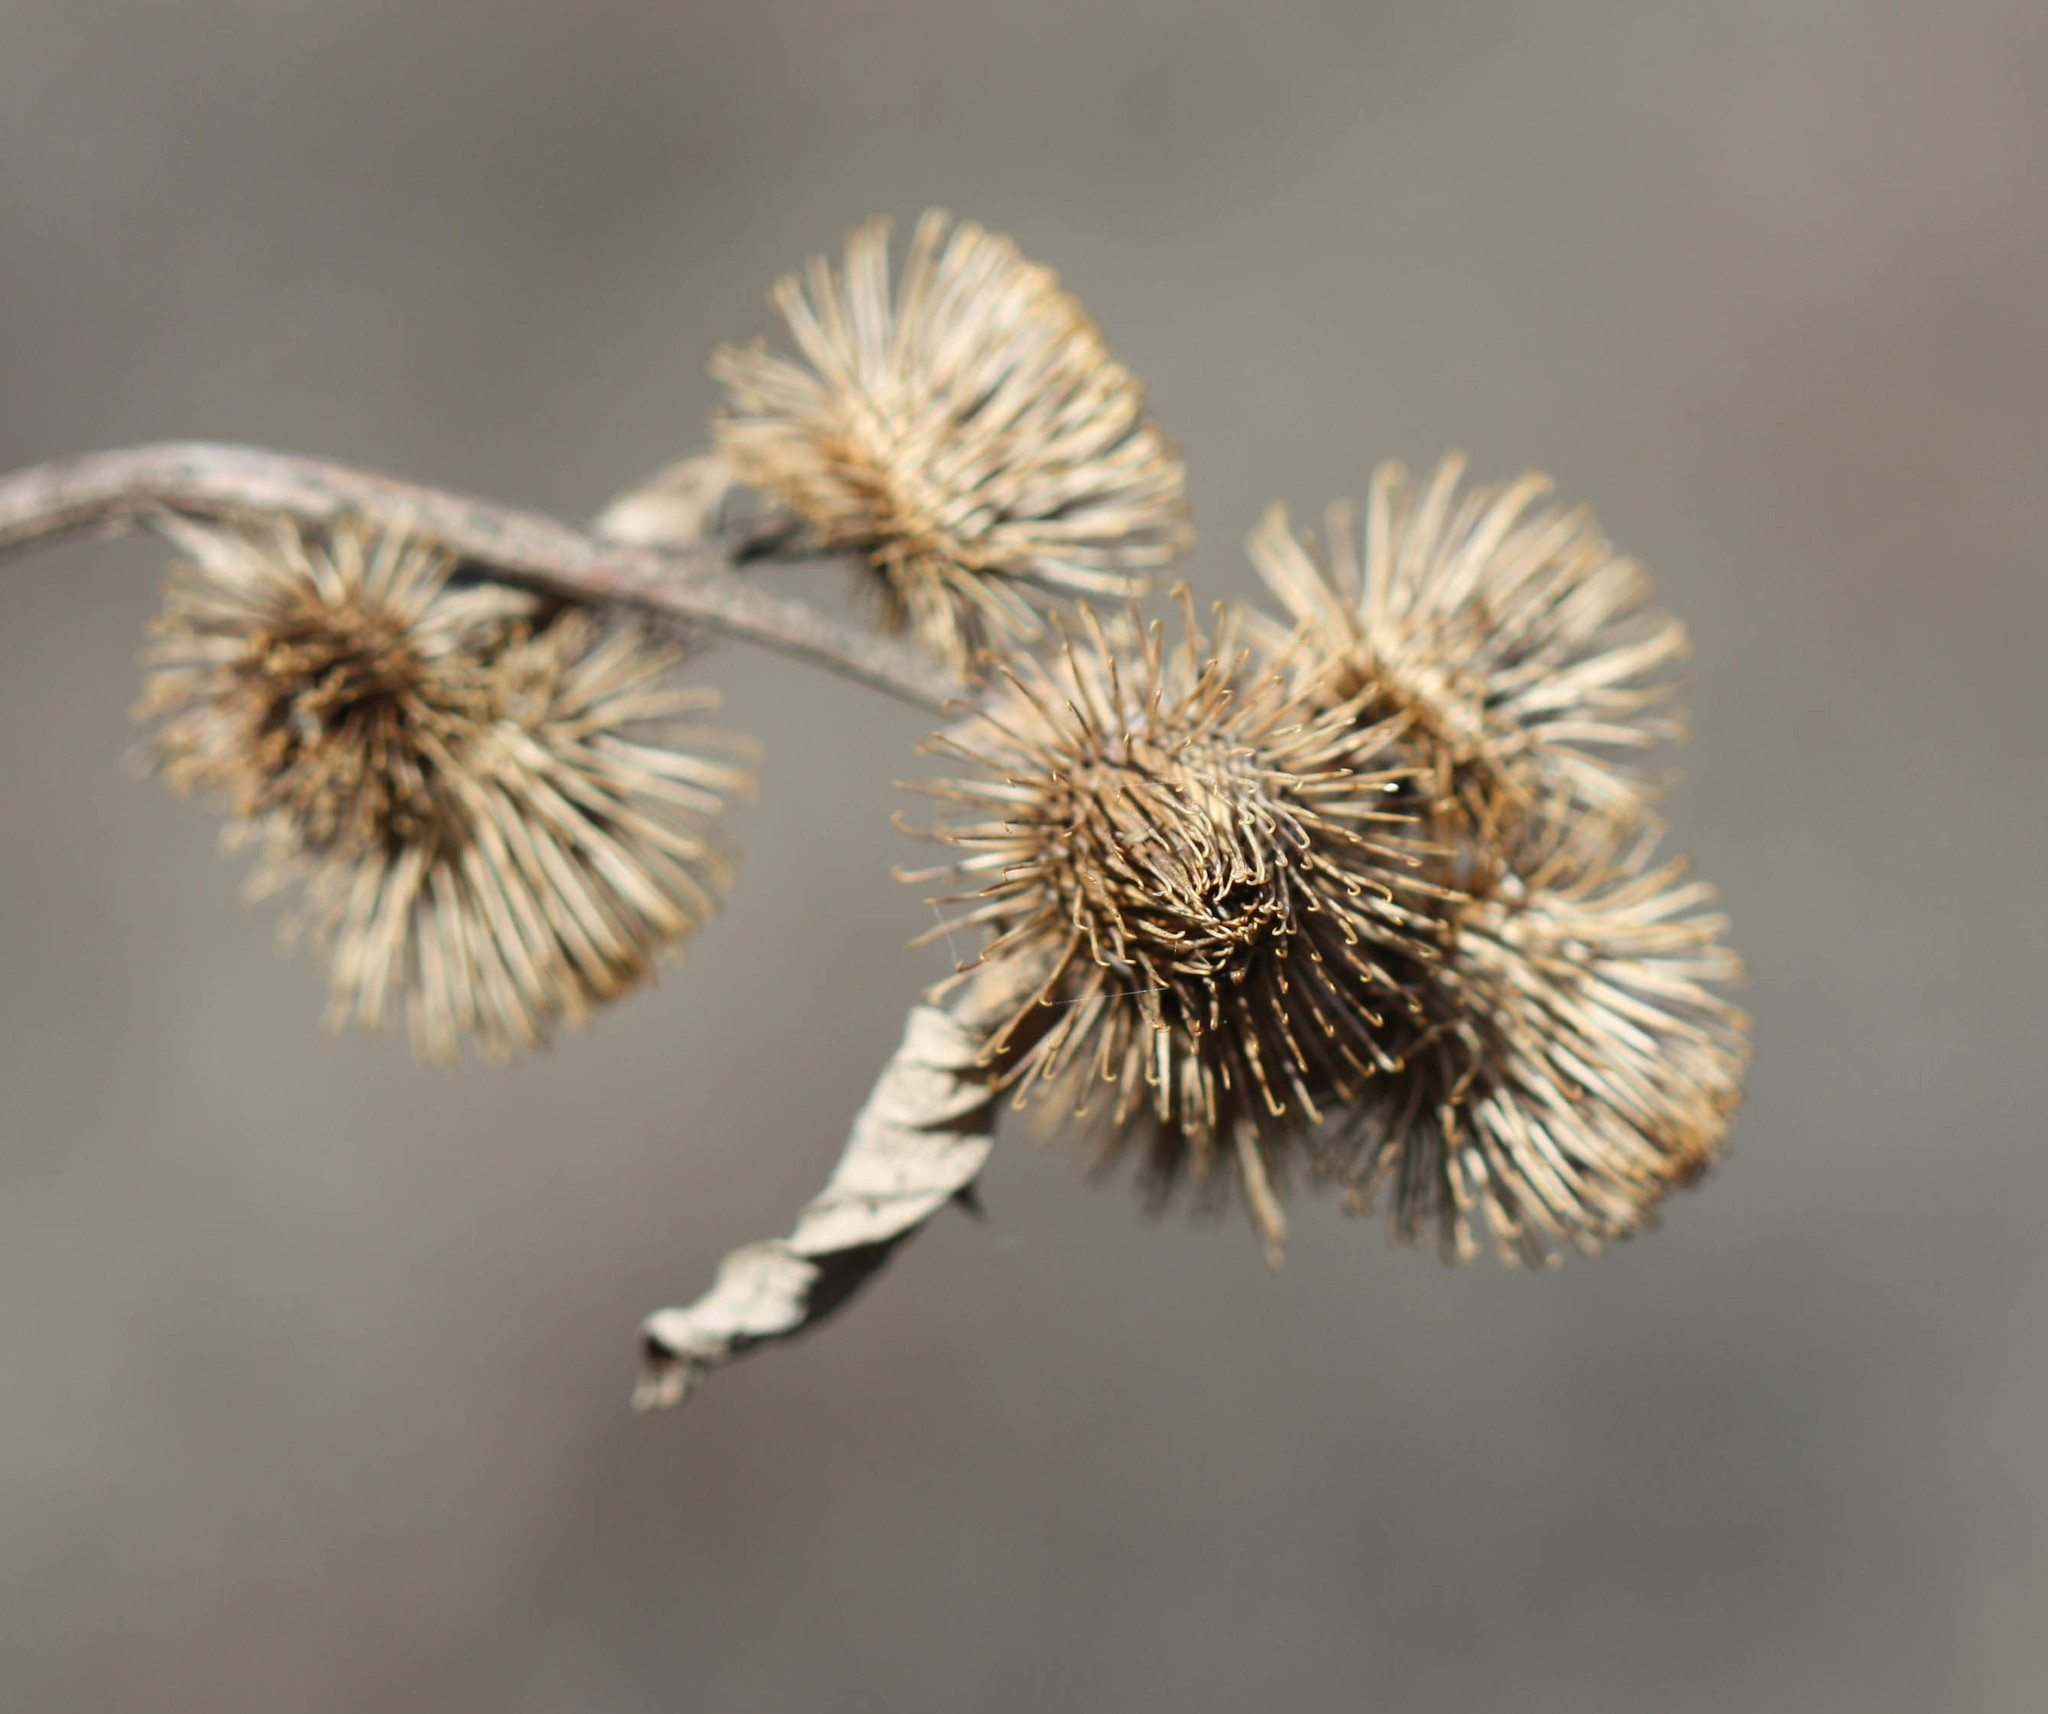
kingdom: Plantae
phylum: Tracheophyta
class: Magnoliopsida
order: Asterales
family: Asteraceae
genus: Arctium
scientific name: Arctium minus
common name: Lesser burdock
